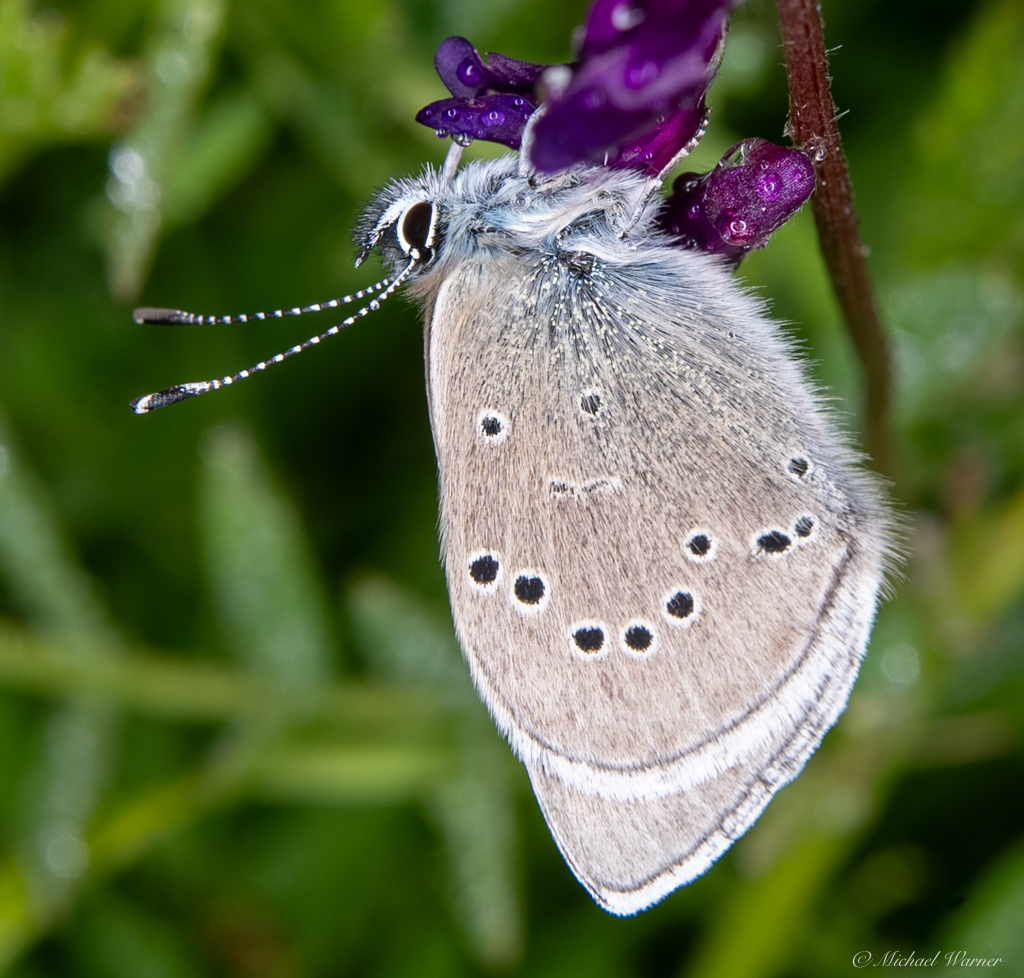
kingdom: Animalia
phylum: Arthropoda
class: Insecta
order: Lepidoptera
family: Lycaenidae
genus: Glaucopsyche
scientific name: Glaucopsyche lygdamus
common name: Silvery blue
